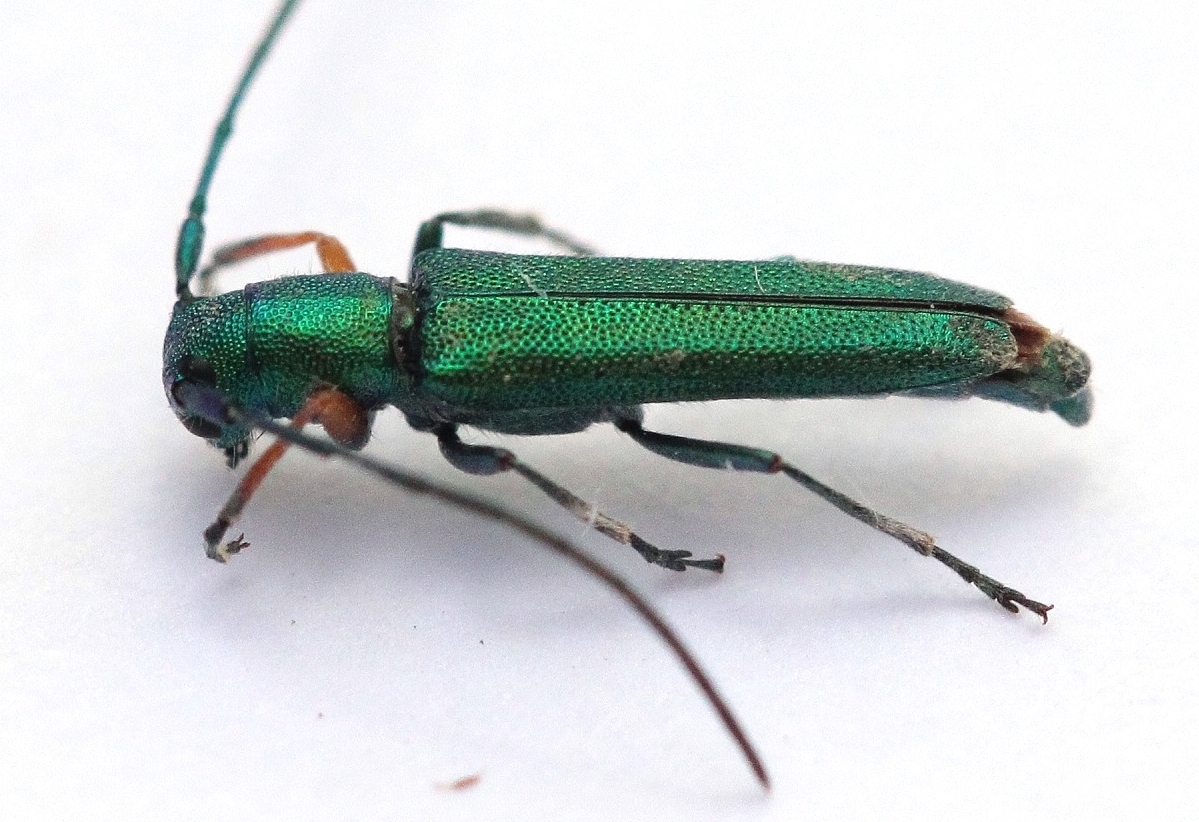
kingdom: Animalia
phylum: Arthropoda
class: Insecta
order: Coleoptera
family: Cerambycidae
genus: Phytoecia
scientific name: Phytoecia caerulea
